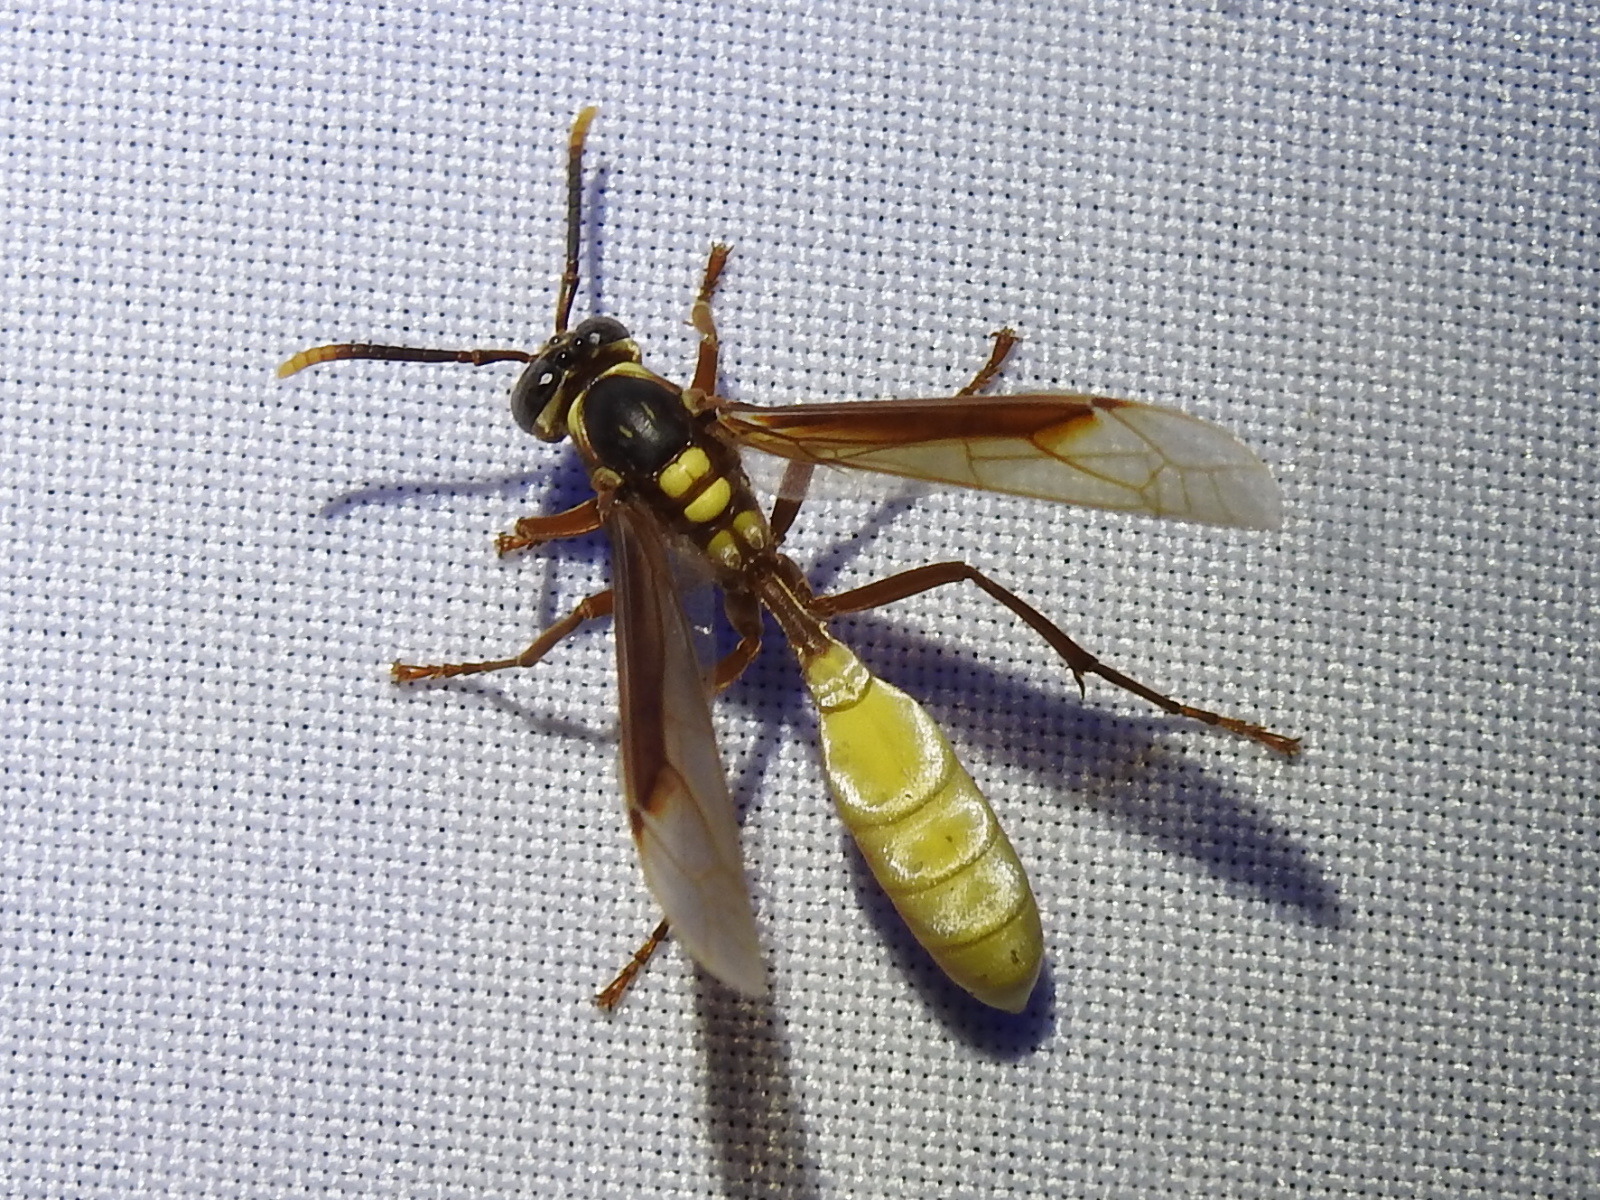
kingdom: Animalia
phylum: Arthropoda
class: Insecta
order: Hymenoptera
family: Vespidae
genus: Apoica
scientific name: Apoica pallens
